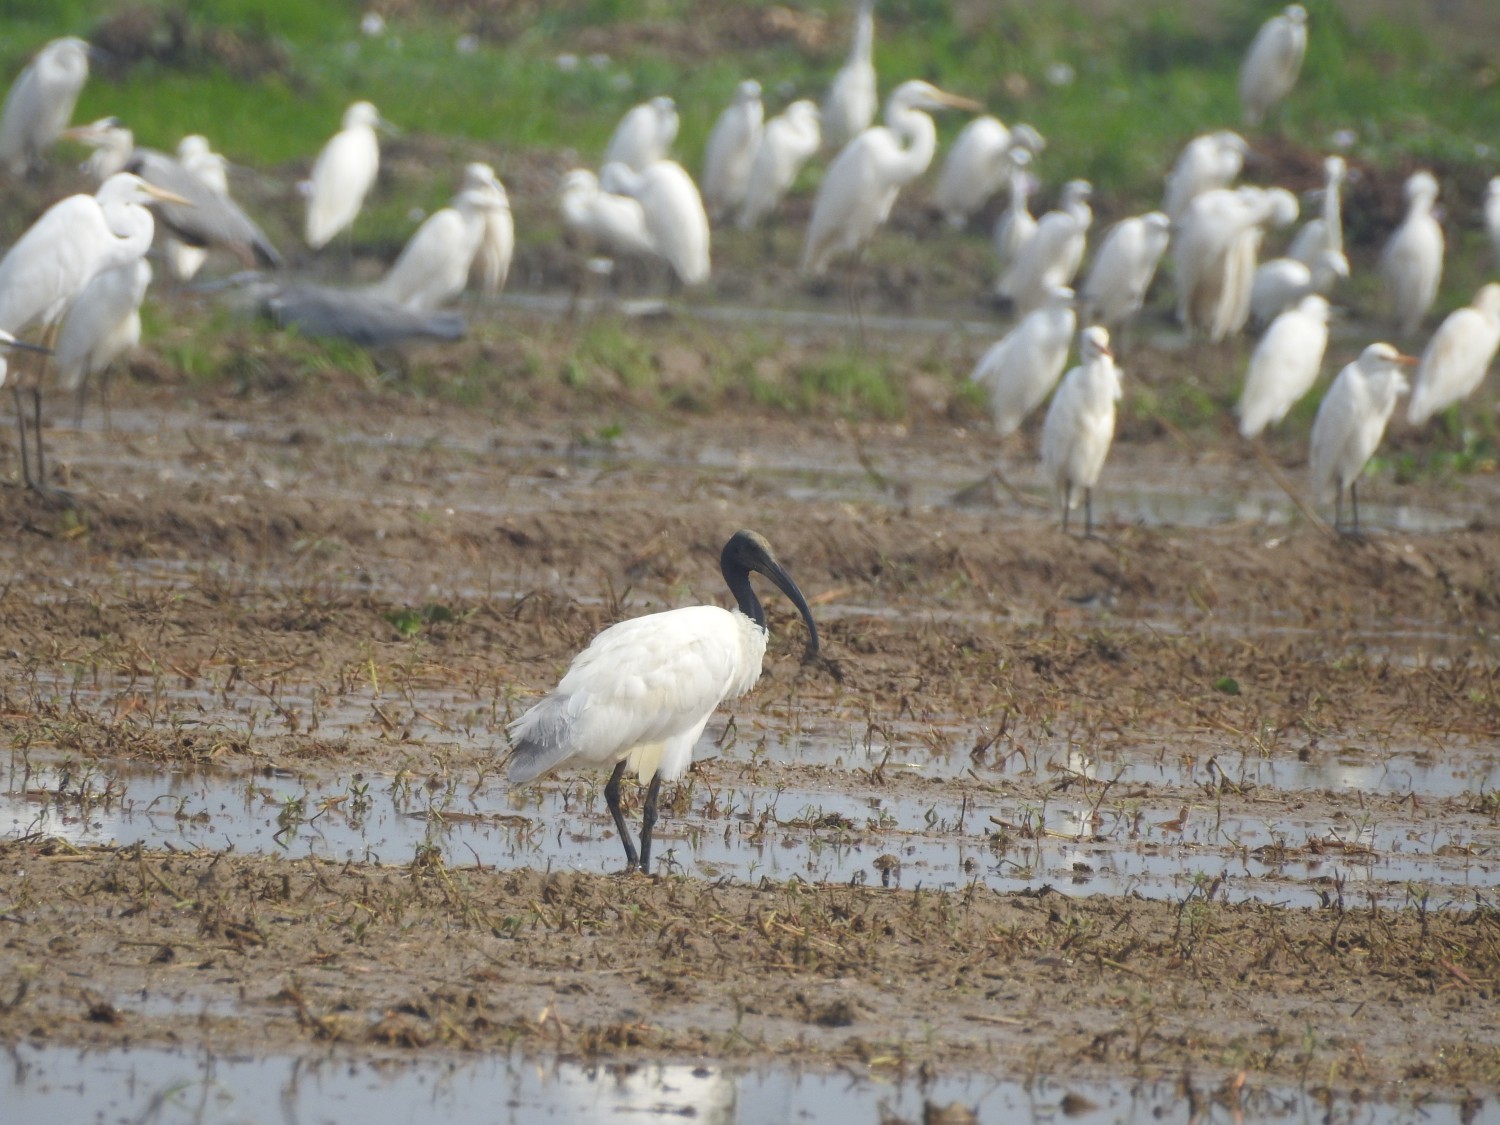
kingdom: Animalia
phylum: Chordata
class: Aves
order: Pelecaniformes
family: Threskiornithidae
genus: Threskiornis
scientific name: Threskiornis melanocephalus
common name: Black-headed ibis
